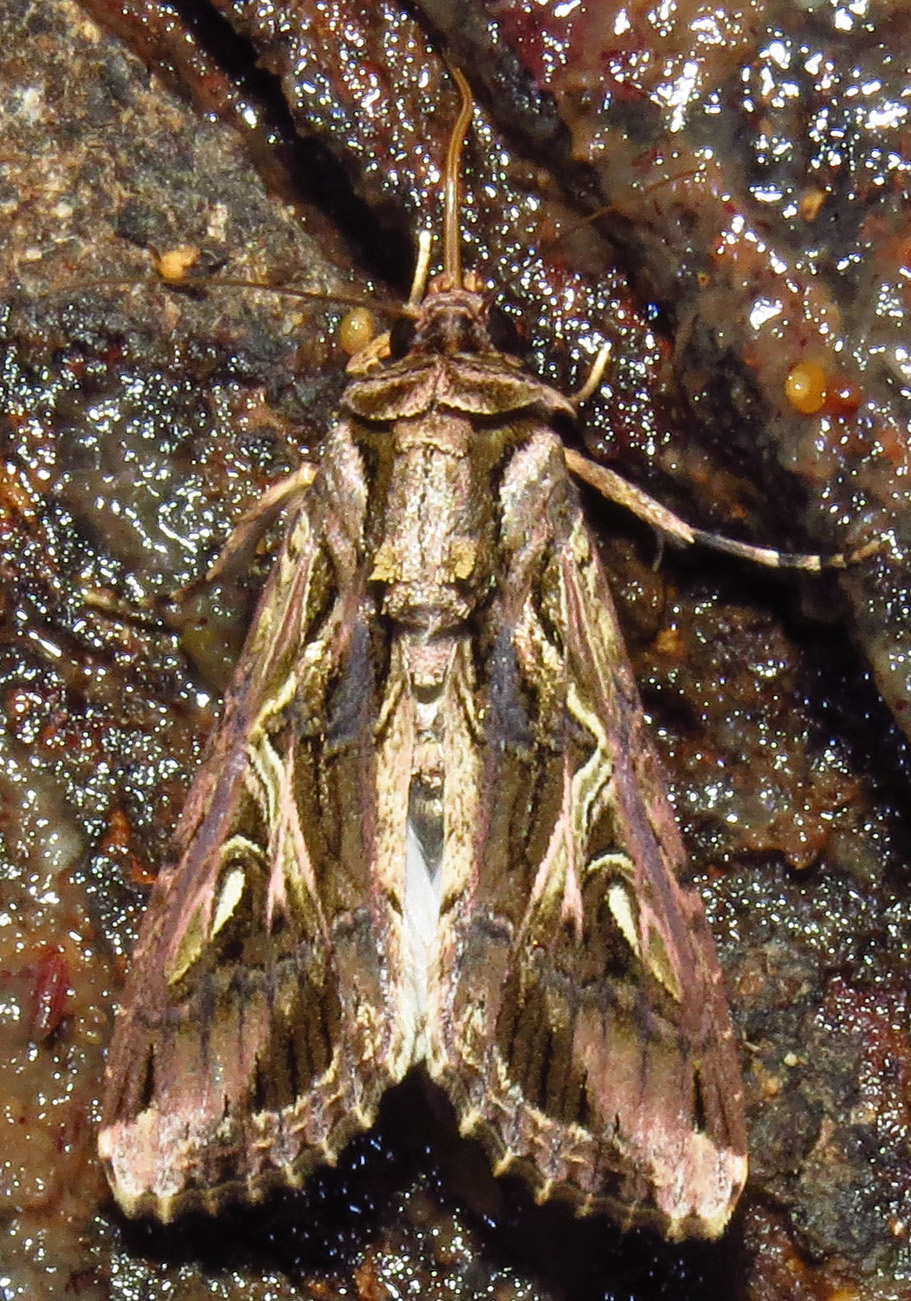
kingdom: Animalia
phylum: Arthropoda
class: Insecta
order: Lepidoptera
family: Noctuidae
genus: Spodoptera
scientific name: Spodoptera dolichos
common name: Sweetpotato armyworm
